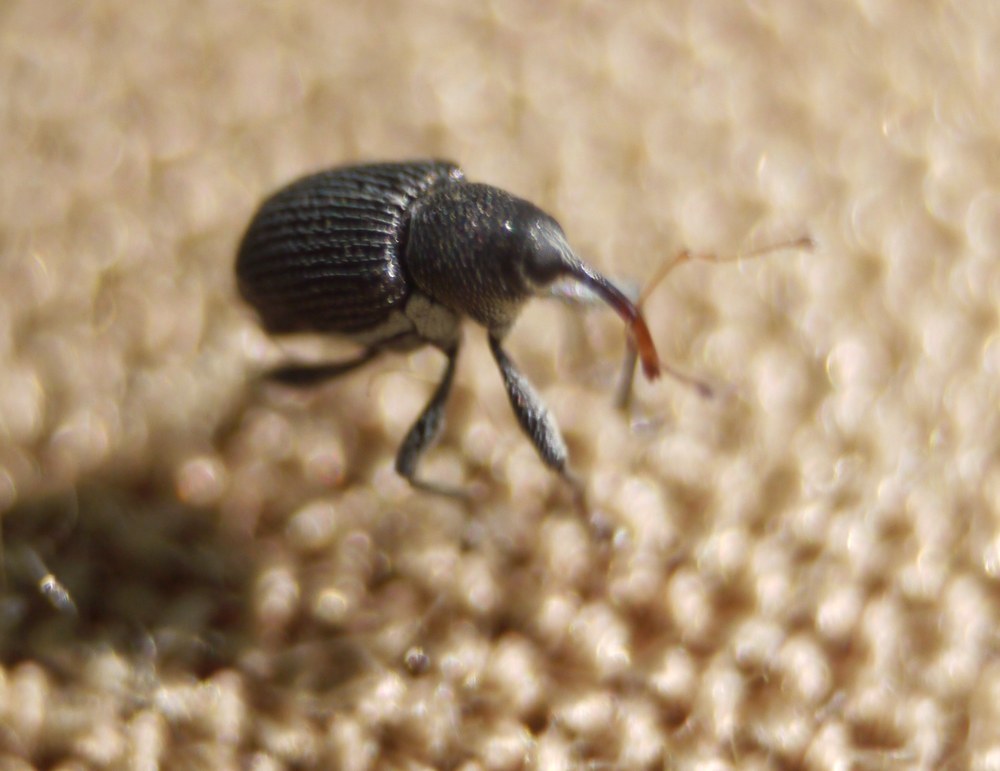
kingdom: Animalia
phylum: Arthropoda
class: Insecta
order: Coleoptera
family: Curculionidae
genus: Archarius
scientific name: Archarius pyrrhoceras
